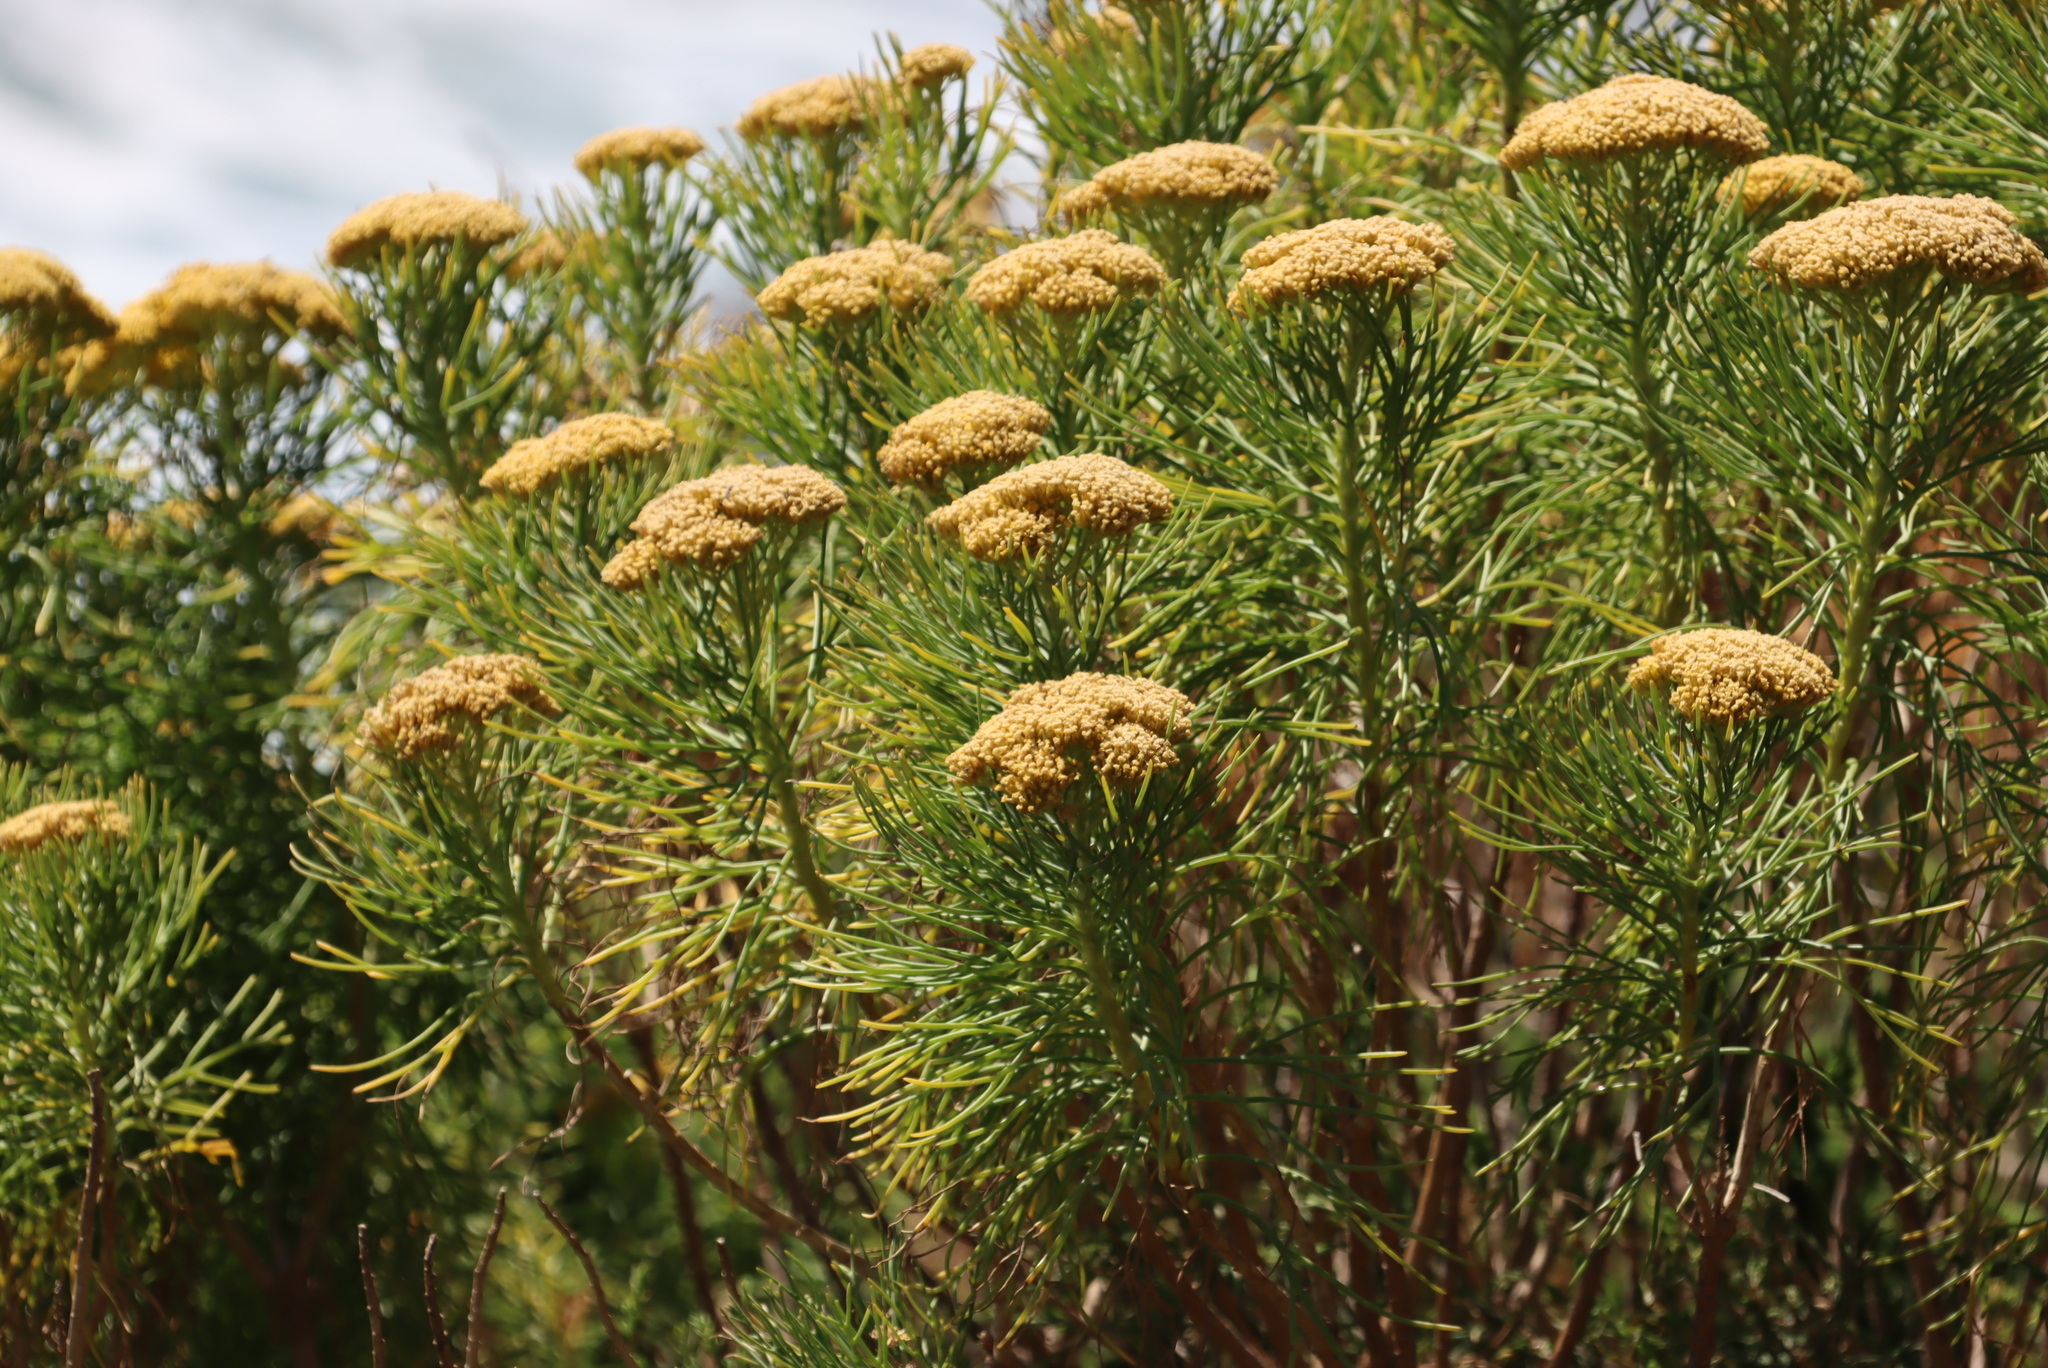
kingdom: Plantae
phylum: Tracheophyta
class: Magnoliopsida
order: Asterales
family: Asteraceae
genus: Hymenolepis
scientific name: Hymenolepis crithmifolia
